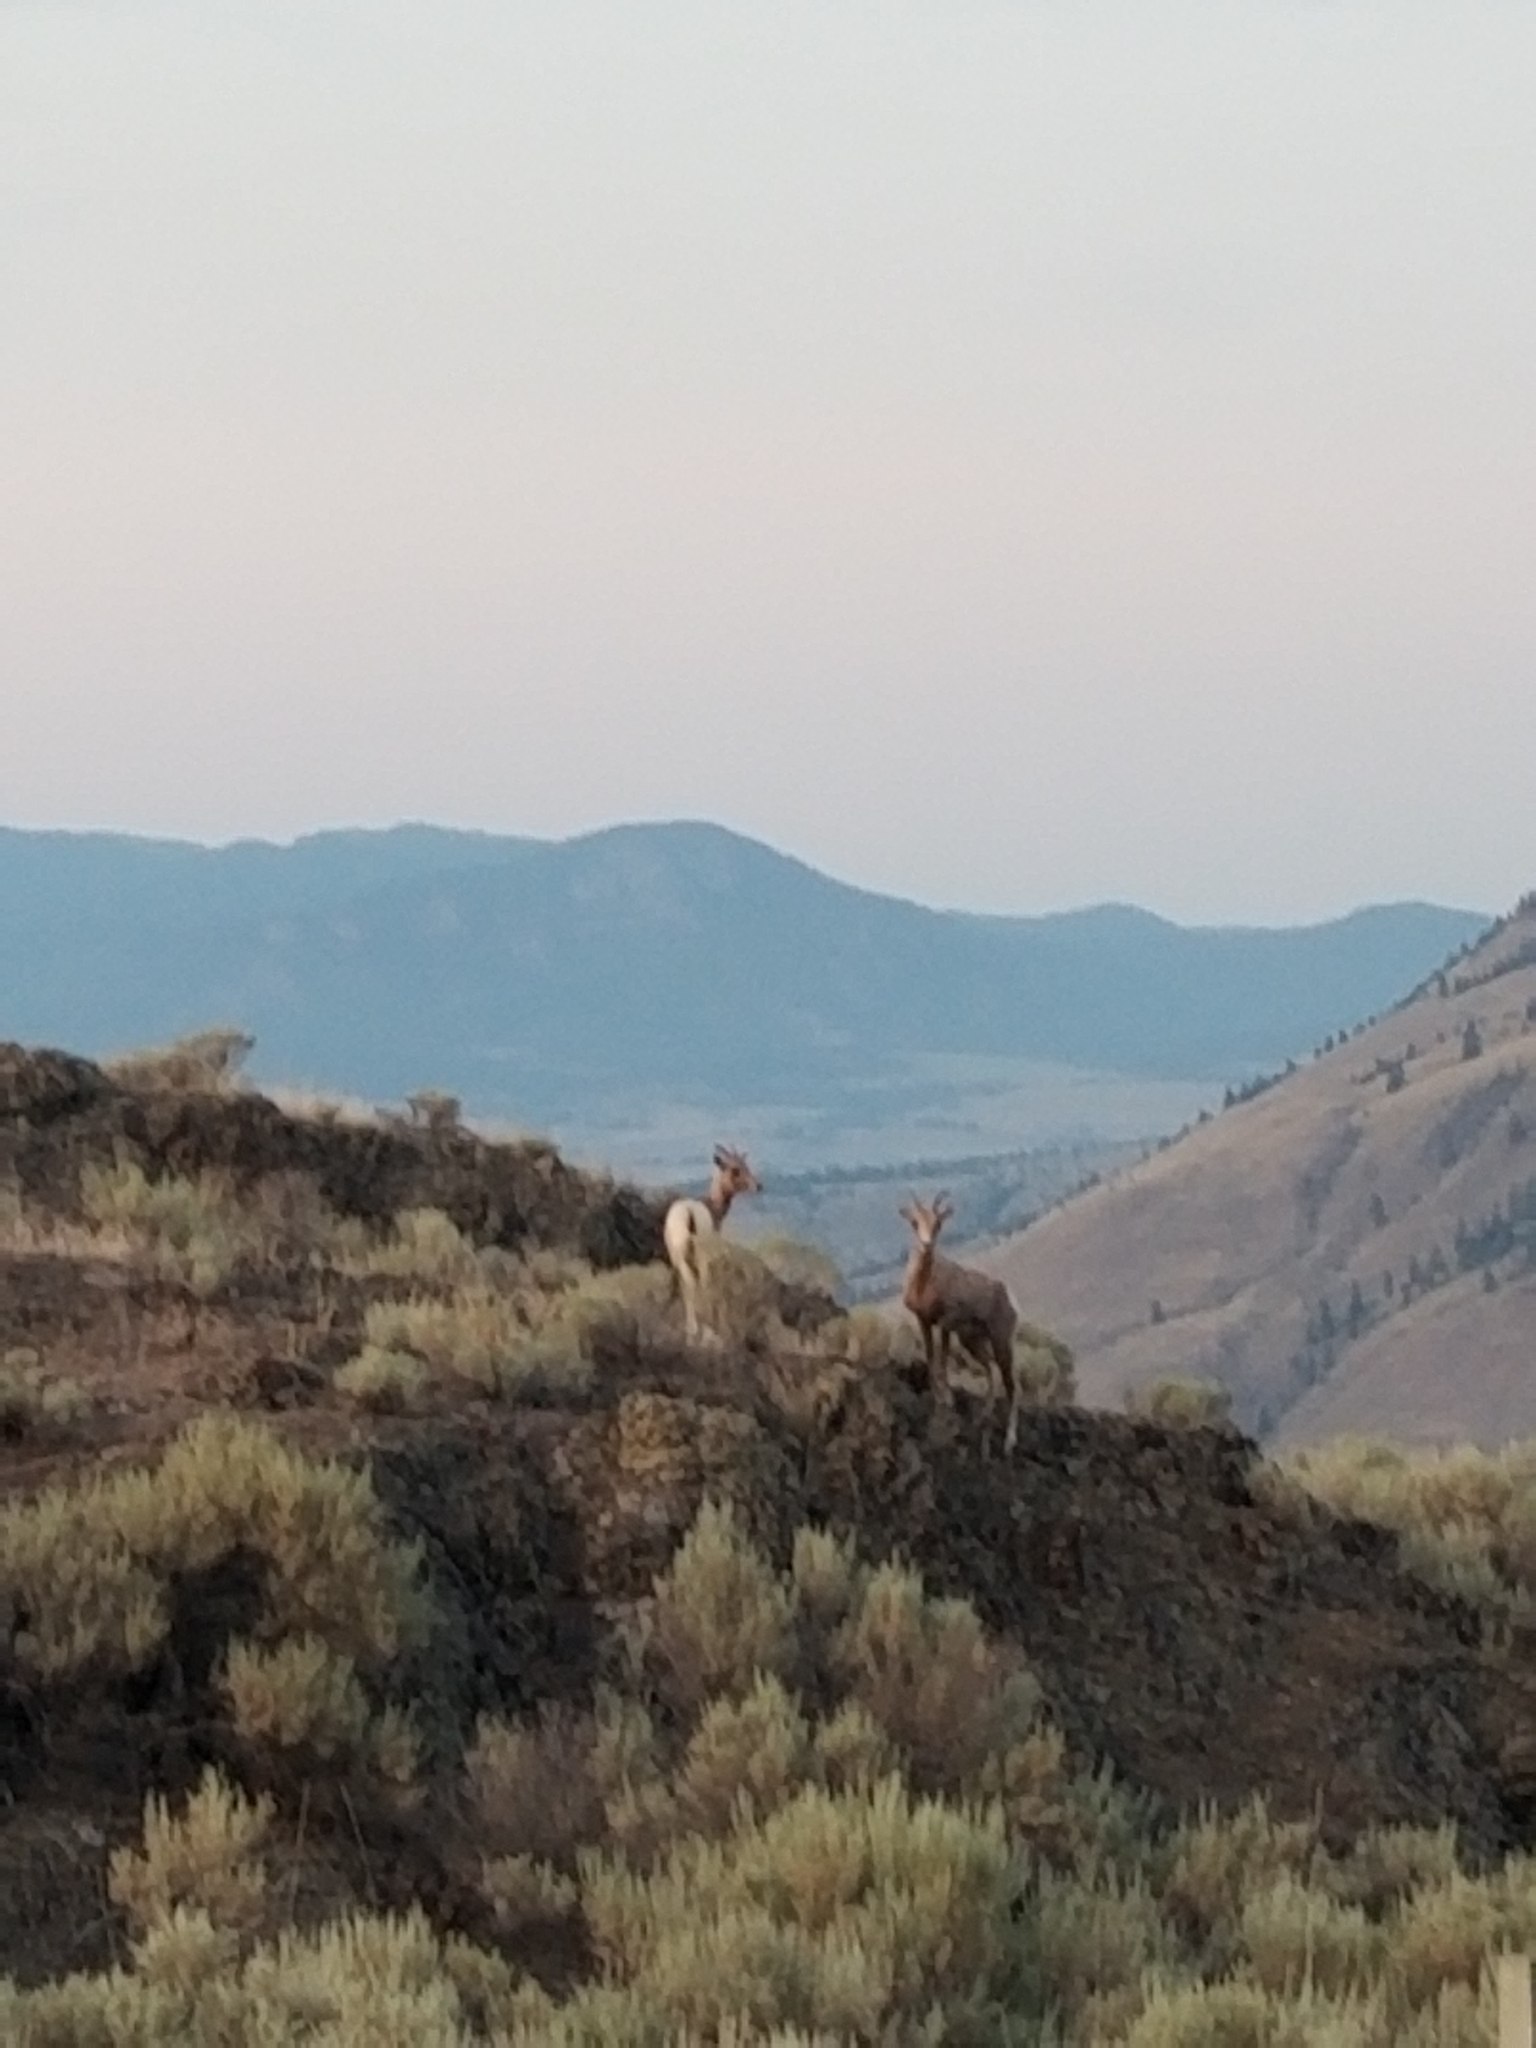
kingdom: Animalia
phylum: Chordata
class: Mammalia
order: Artiodactyla
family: Bovidae
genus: Ovis
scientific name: Ovis canadensis
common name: Bighorn sheep
